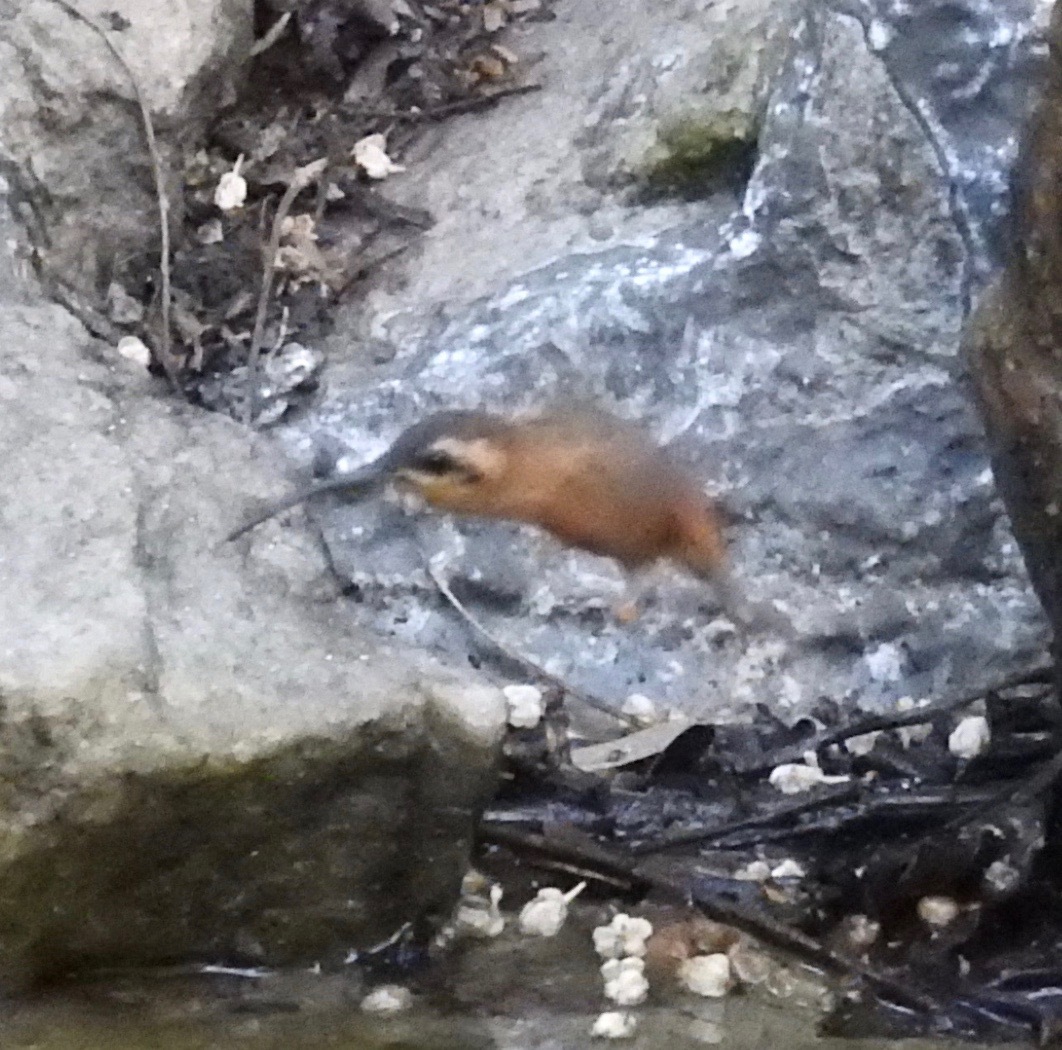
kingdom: Animalia
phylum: Chordata
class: Aves
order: Apodiformes
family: Trochilidae
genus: Phaethornis
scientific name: Phaethornis ruber
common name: Reddish hermit
